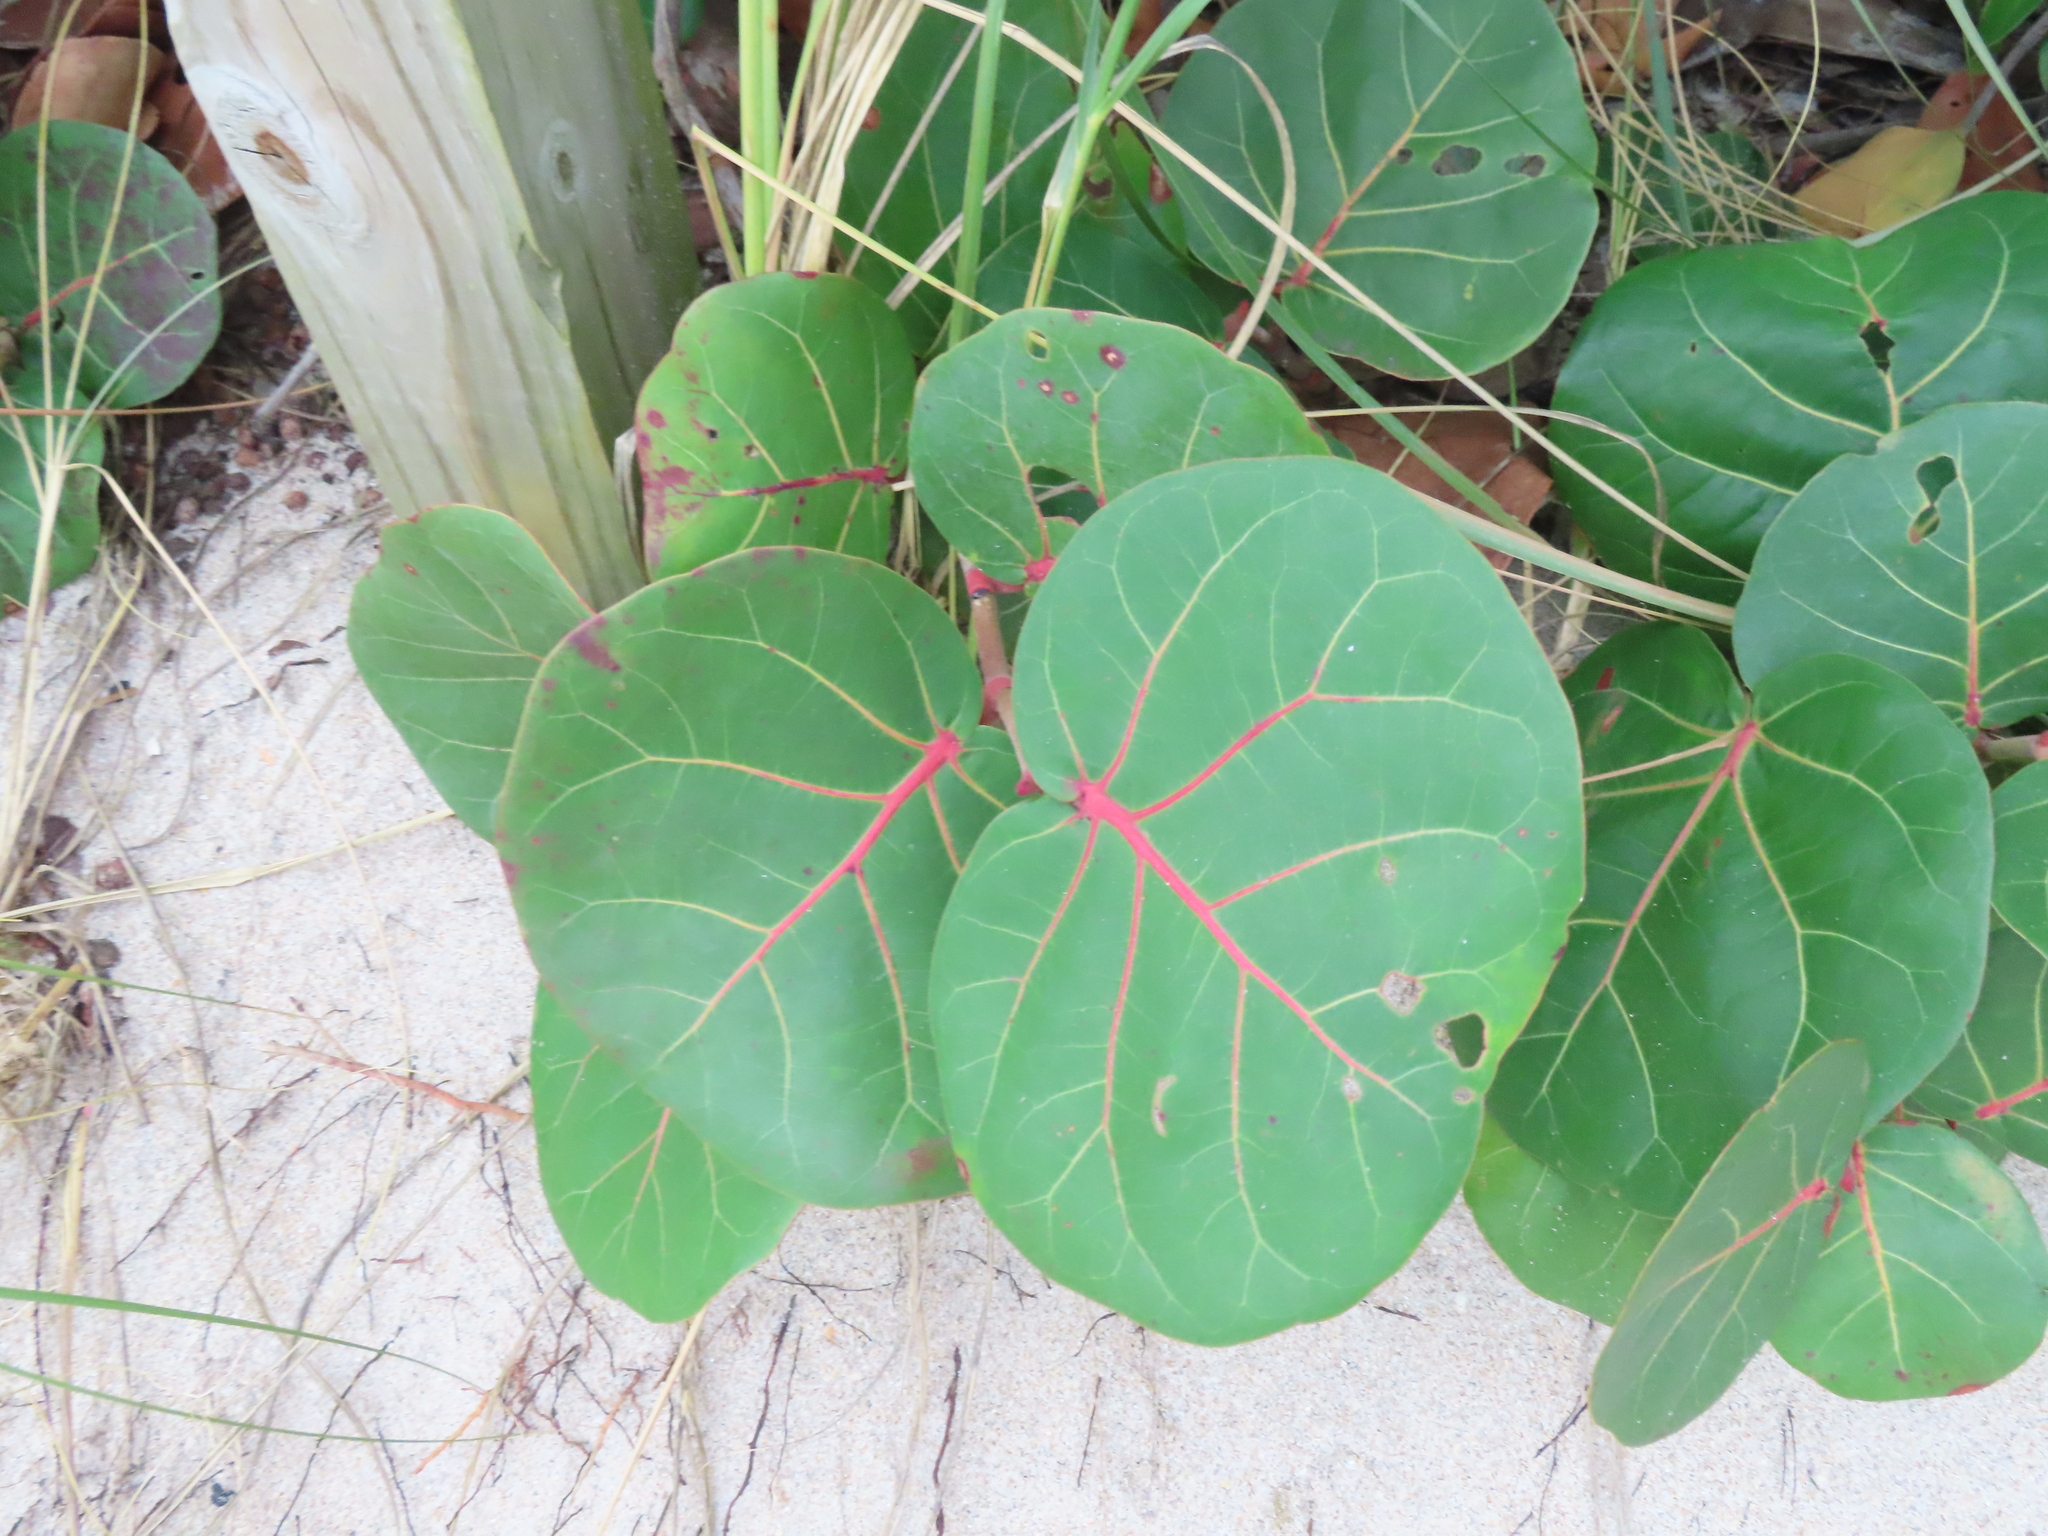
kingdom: Plantae
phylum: Tracheophyta
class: Magnoliopsida
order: Caryophyllales
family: Polygonaceae
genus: Coccoloba
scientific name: Coccoloba uvifera
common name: Seagrape
